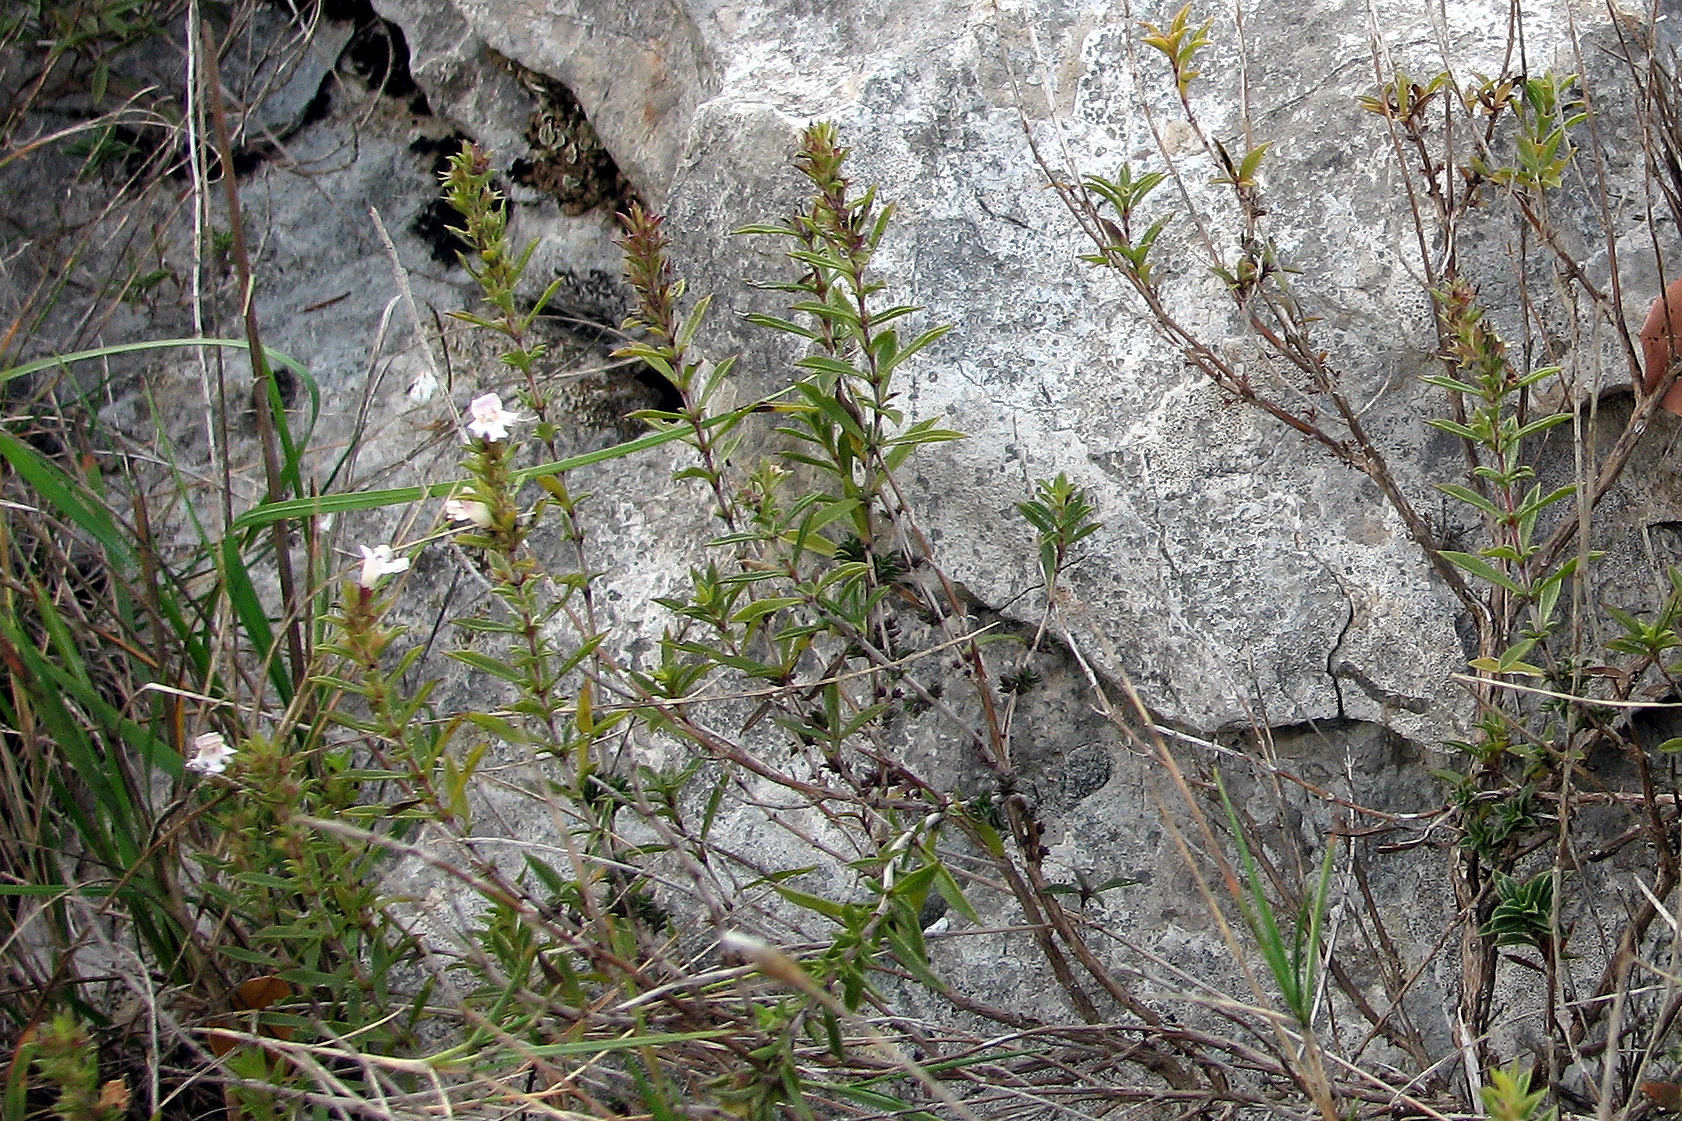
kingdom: Plantae
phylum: Tracheophyta
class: Magnoliopsida
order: Lamiales
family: Lamiaceae
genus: Satureja
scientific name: Satureja montana
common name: Winter savory
